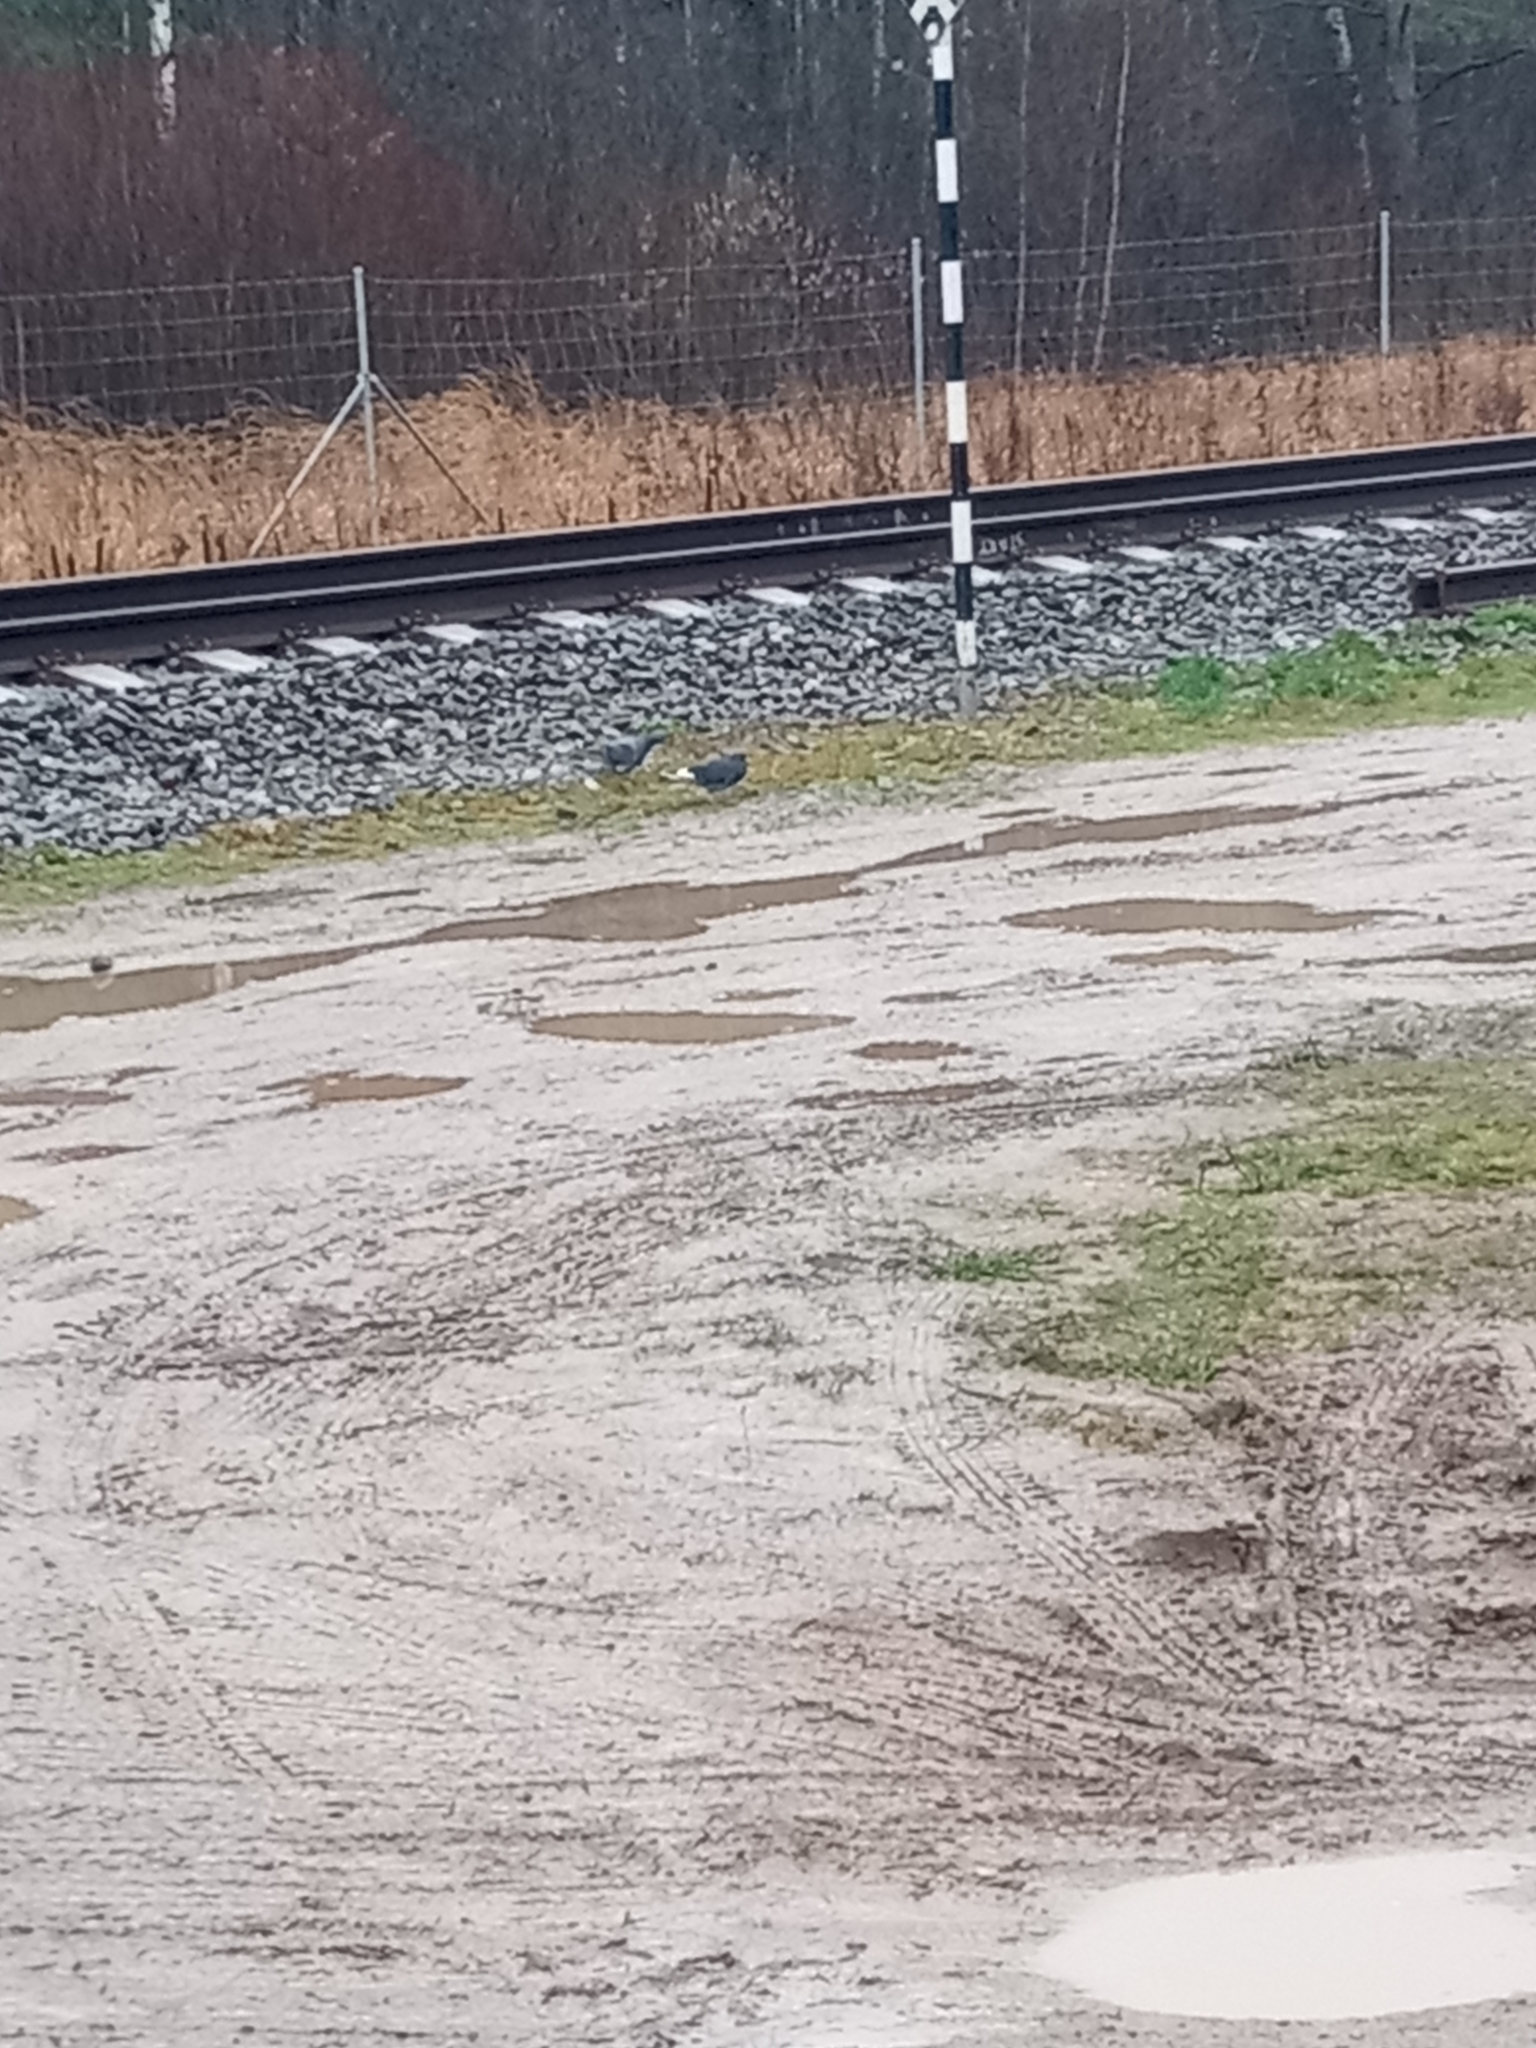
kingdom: Animalia
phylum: Chordata
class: Aves
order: Columbiformes
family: Columbidae
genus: Columba
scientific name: Columba livia
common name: Rock pigeon
